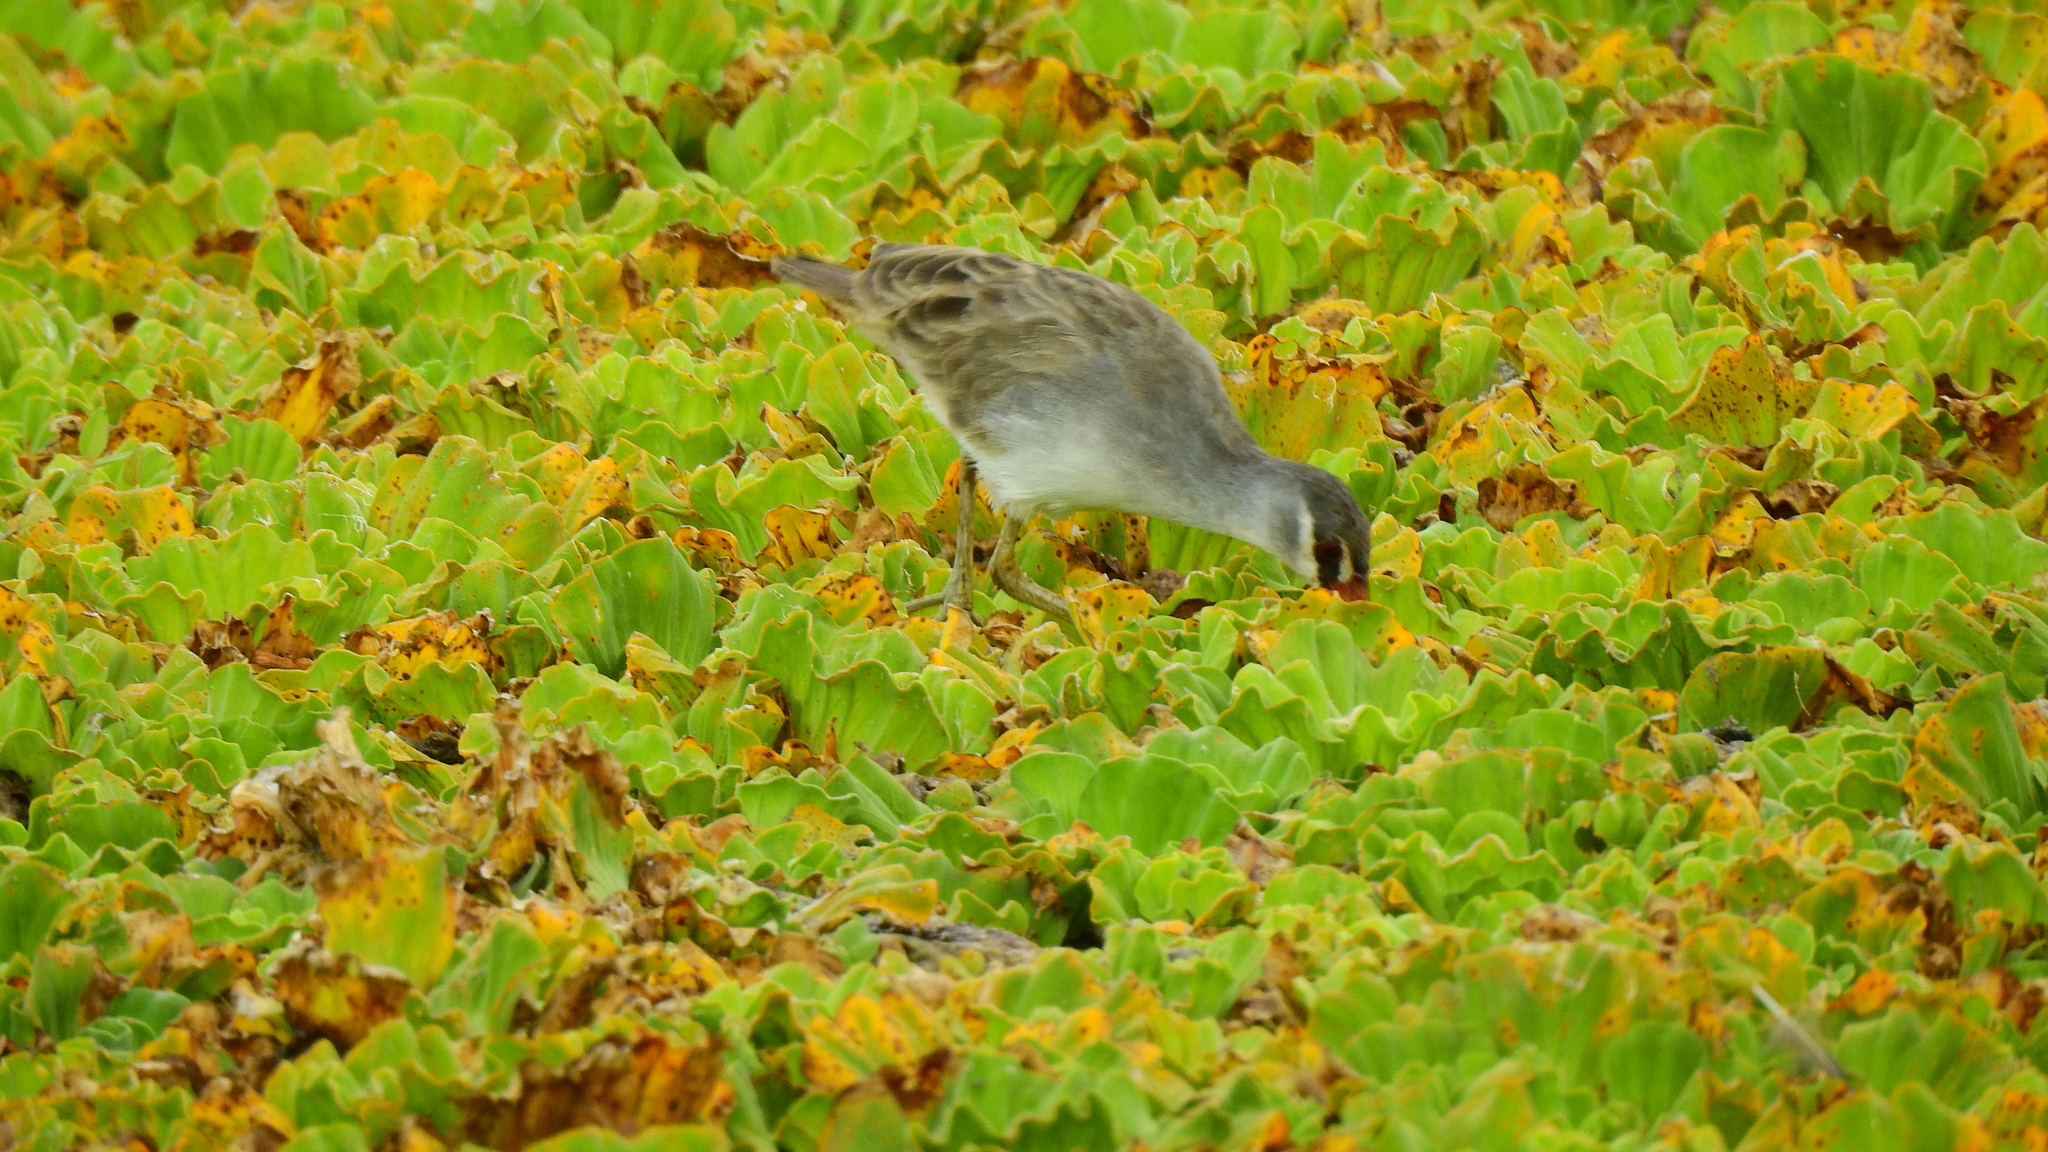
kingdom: Animalia
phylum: Chordata
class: Aves
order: Gruiformes
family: Rallidae
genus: Porzana
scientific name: Porzana cinerea
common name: White-browed crake
